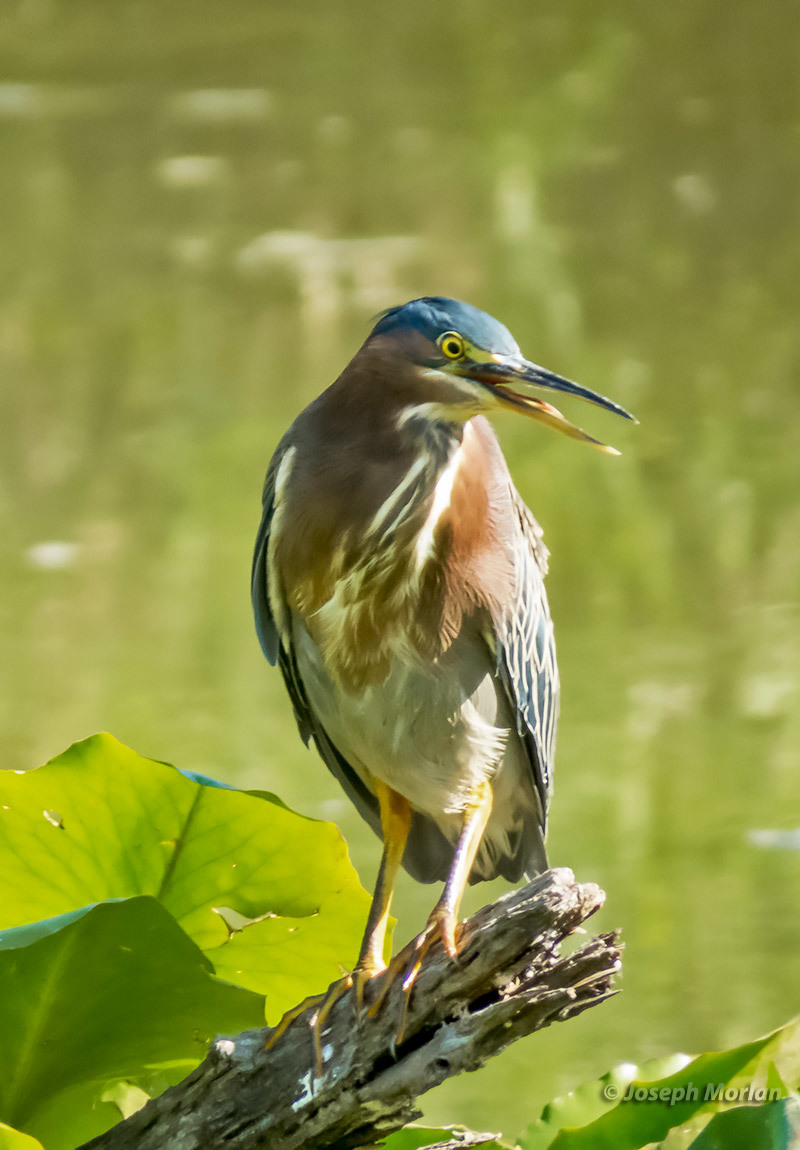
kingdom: Animalia
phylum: Chordata
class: Aves
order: Pelecaniformes
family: Ardeidae
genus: Butorides
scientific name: Butorides virescens
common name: Green heron
